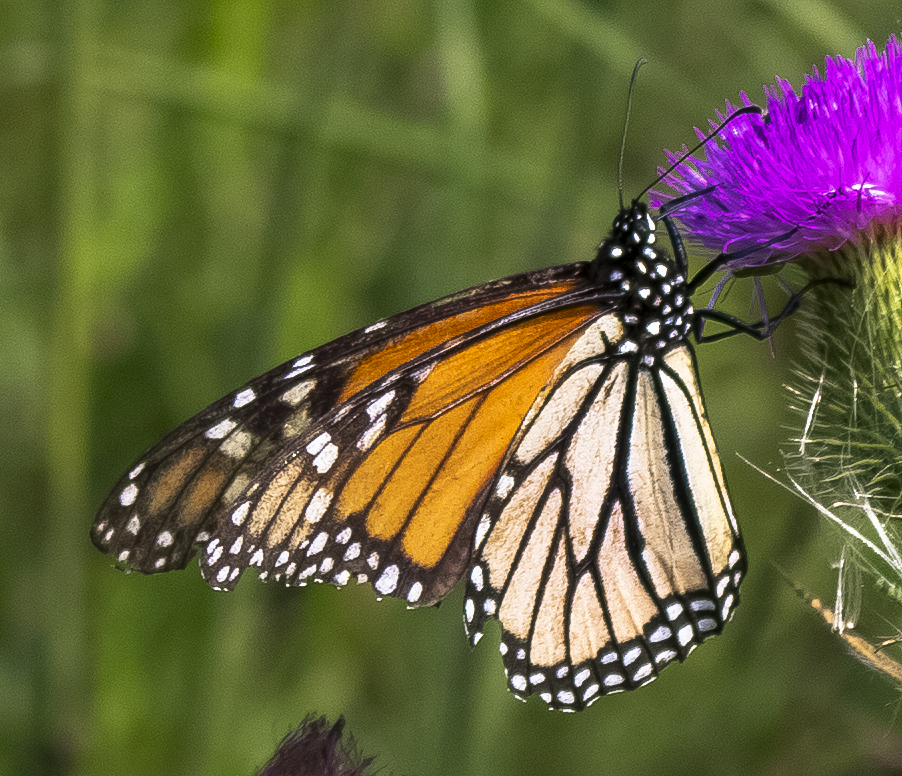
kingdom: Animalia
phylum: Arthropoda
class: Insecta
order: Lepidoptera
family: Nymphalidae
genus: Danaus
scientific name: Danaus plexippus
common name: Monarch
